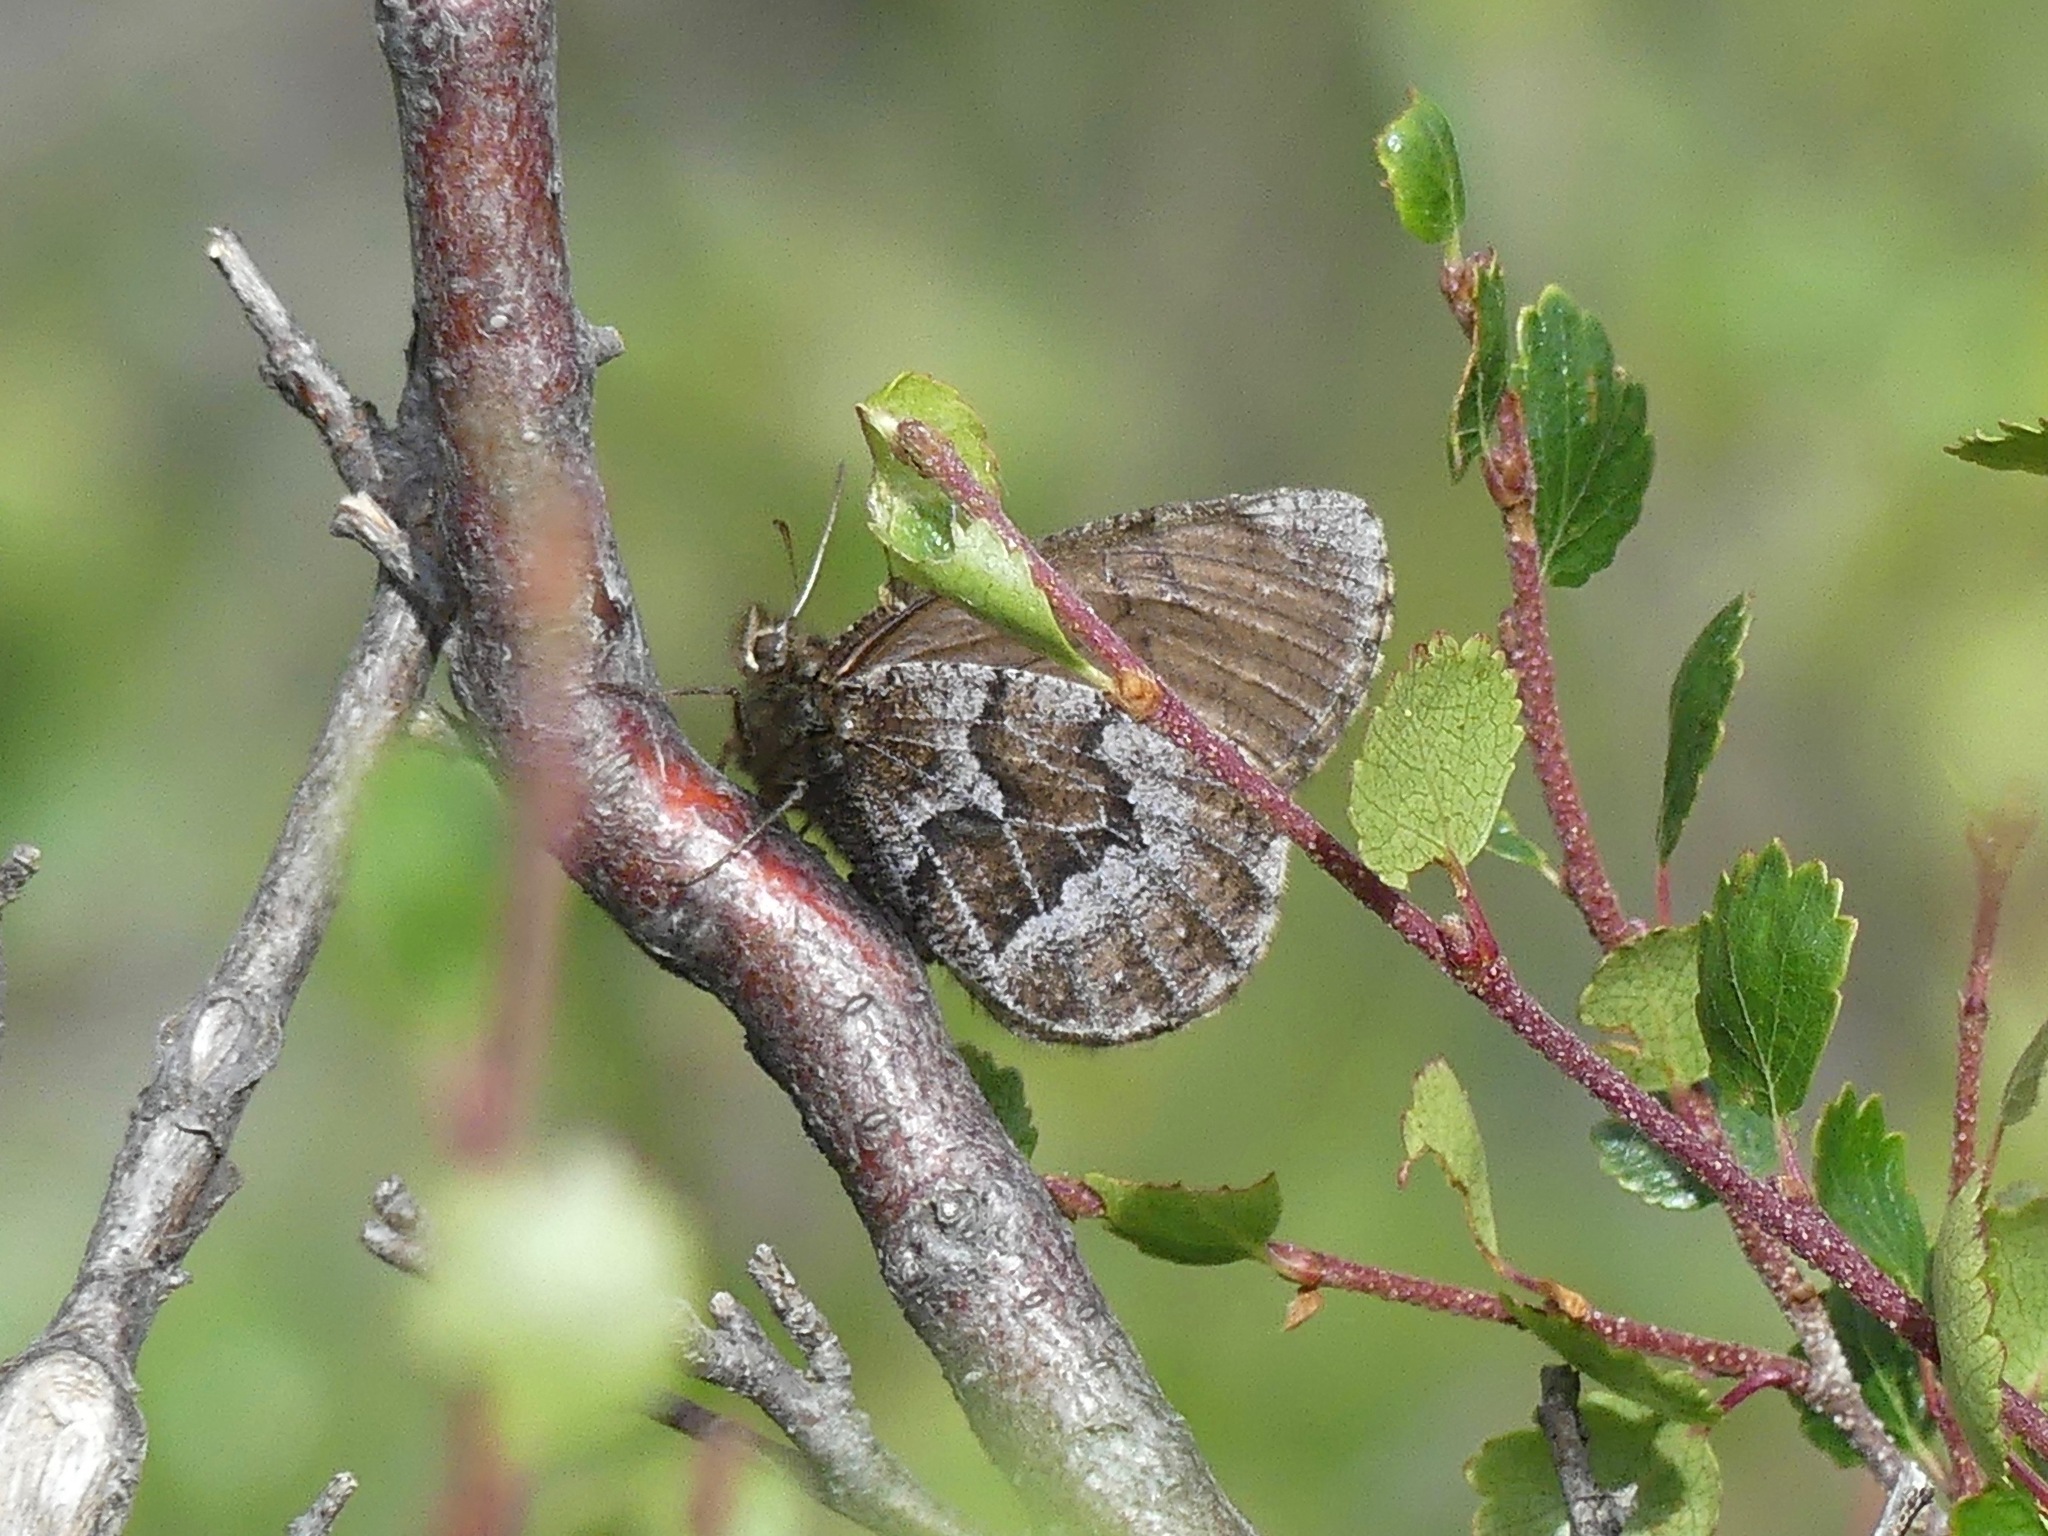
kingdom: Animalia
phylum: Arthropoda
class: Insecta
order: Lepidoptera
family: Nymphalidae
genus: Oeneis
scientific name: Oeneis bore
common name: Arctic grayling
